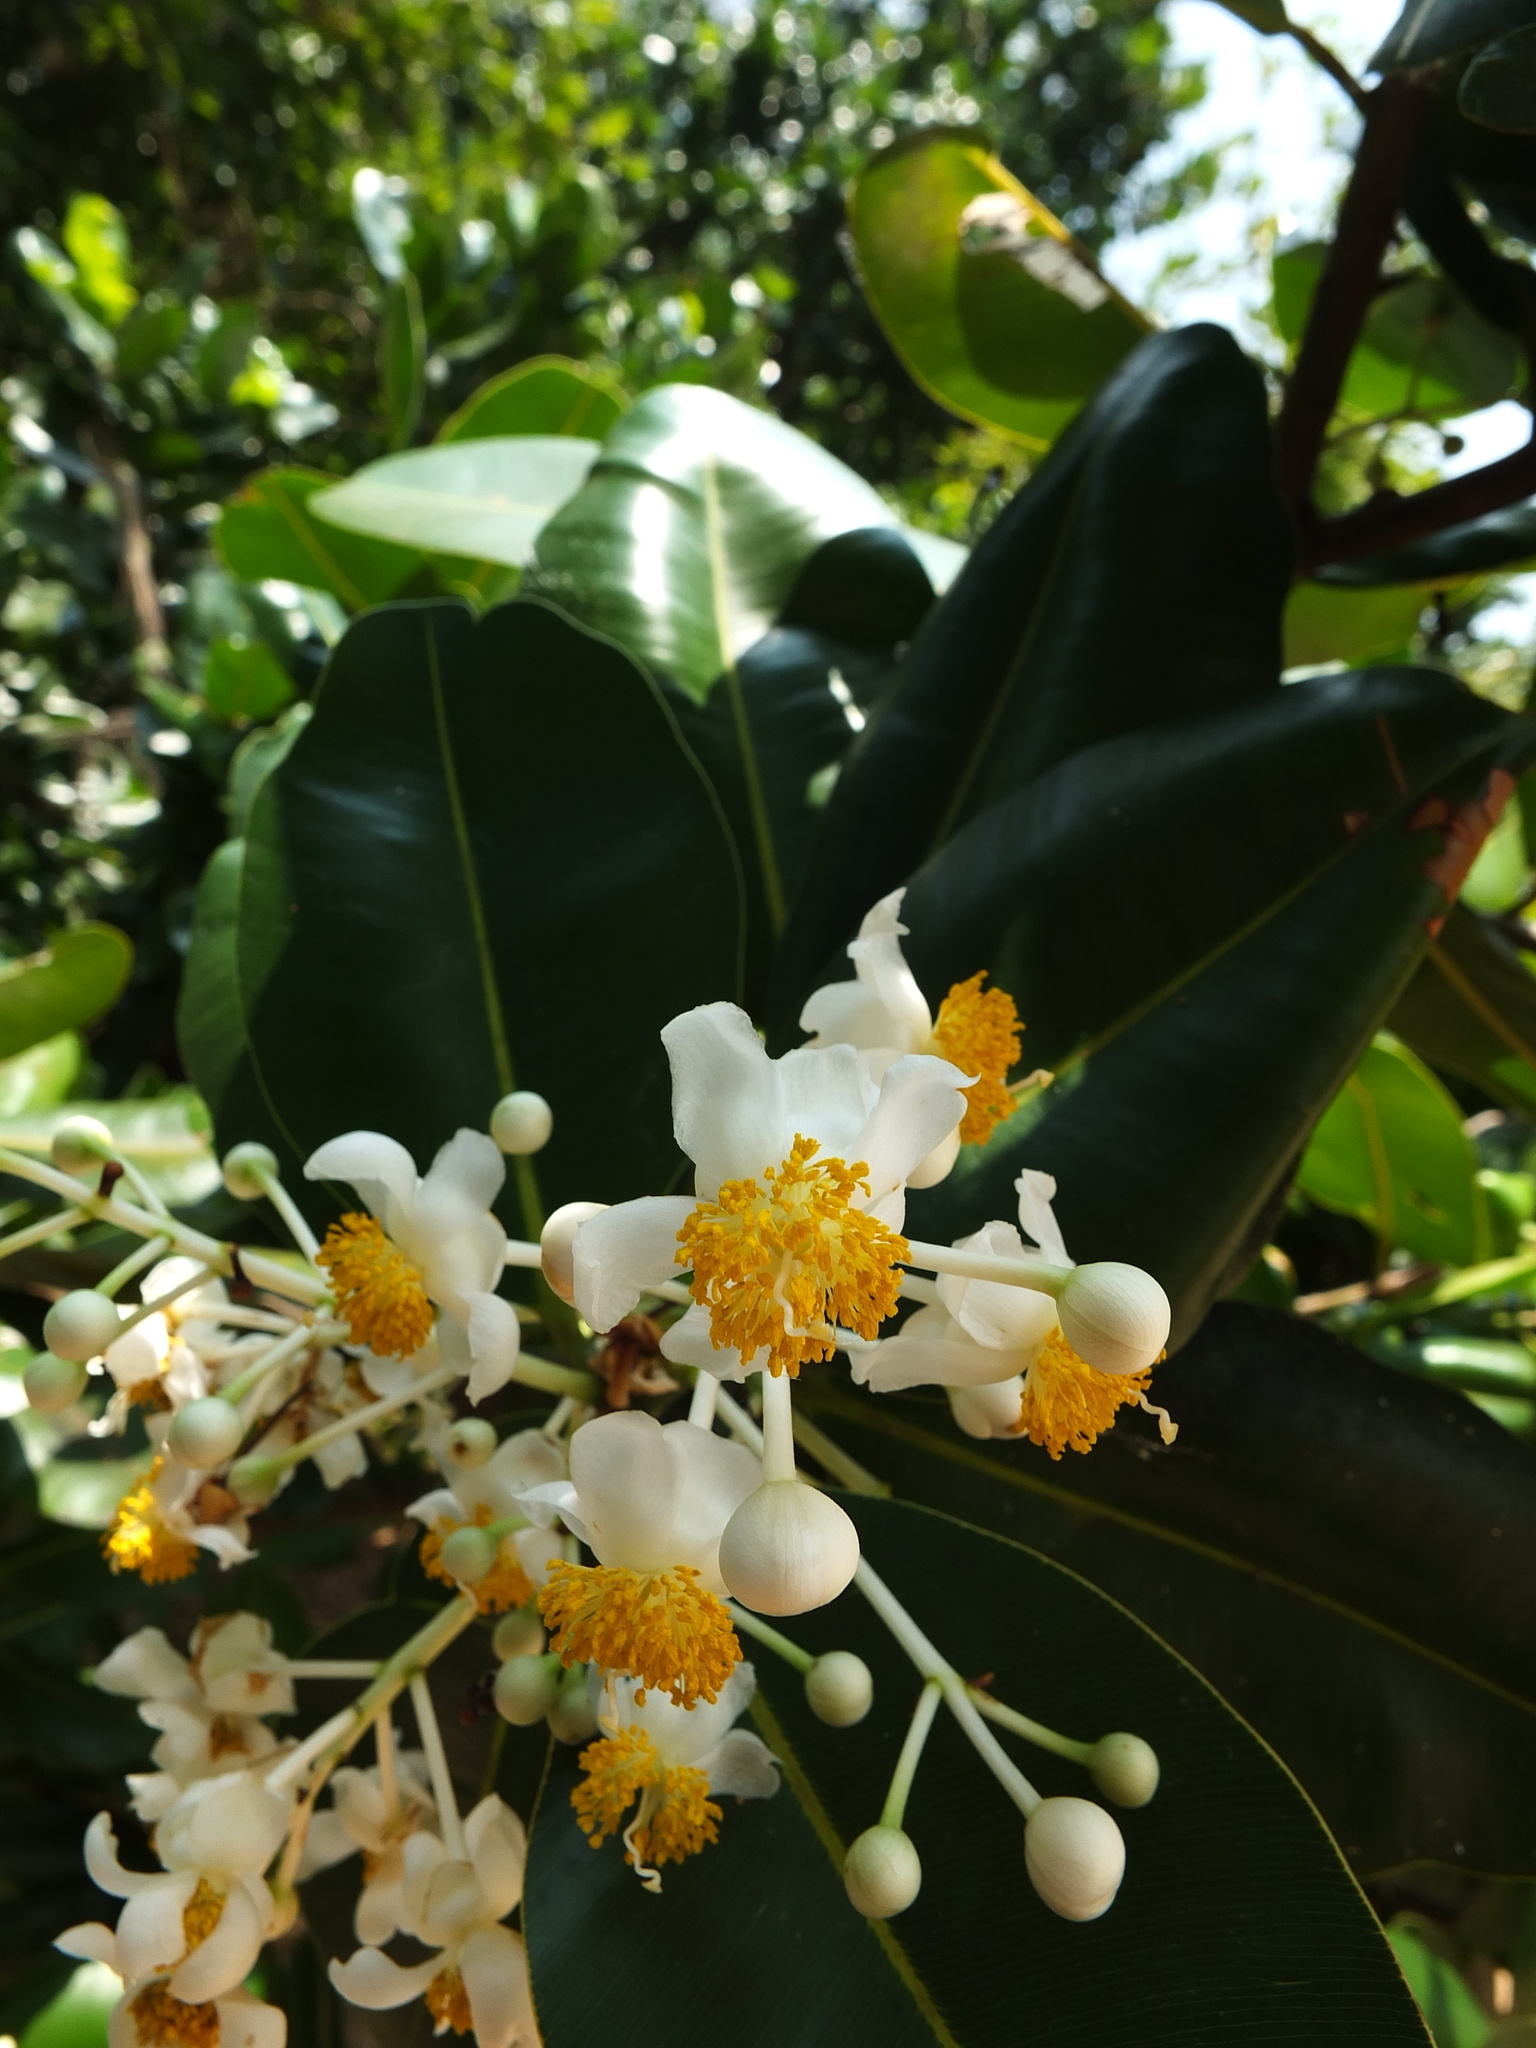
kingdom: Plantae
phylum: Tracheophyta
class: Magnoliopsida
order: Malpighiales
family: Calophyllaceae
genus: Calophyllum
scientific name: Calophyllum inophyllum
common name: Alexandrian laurel
